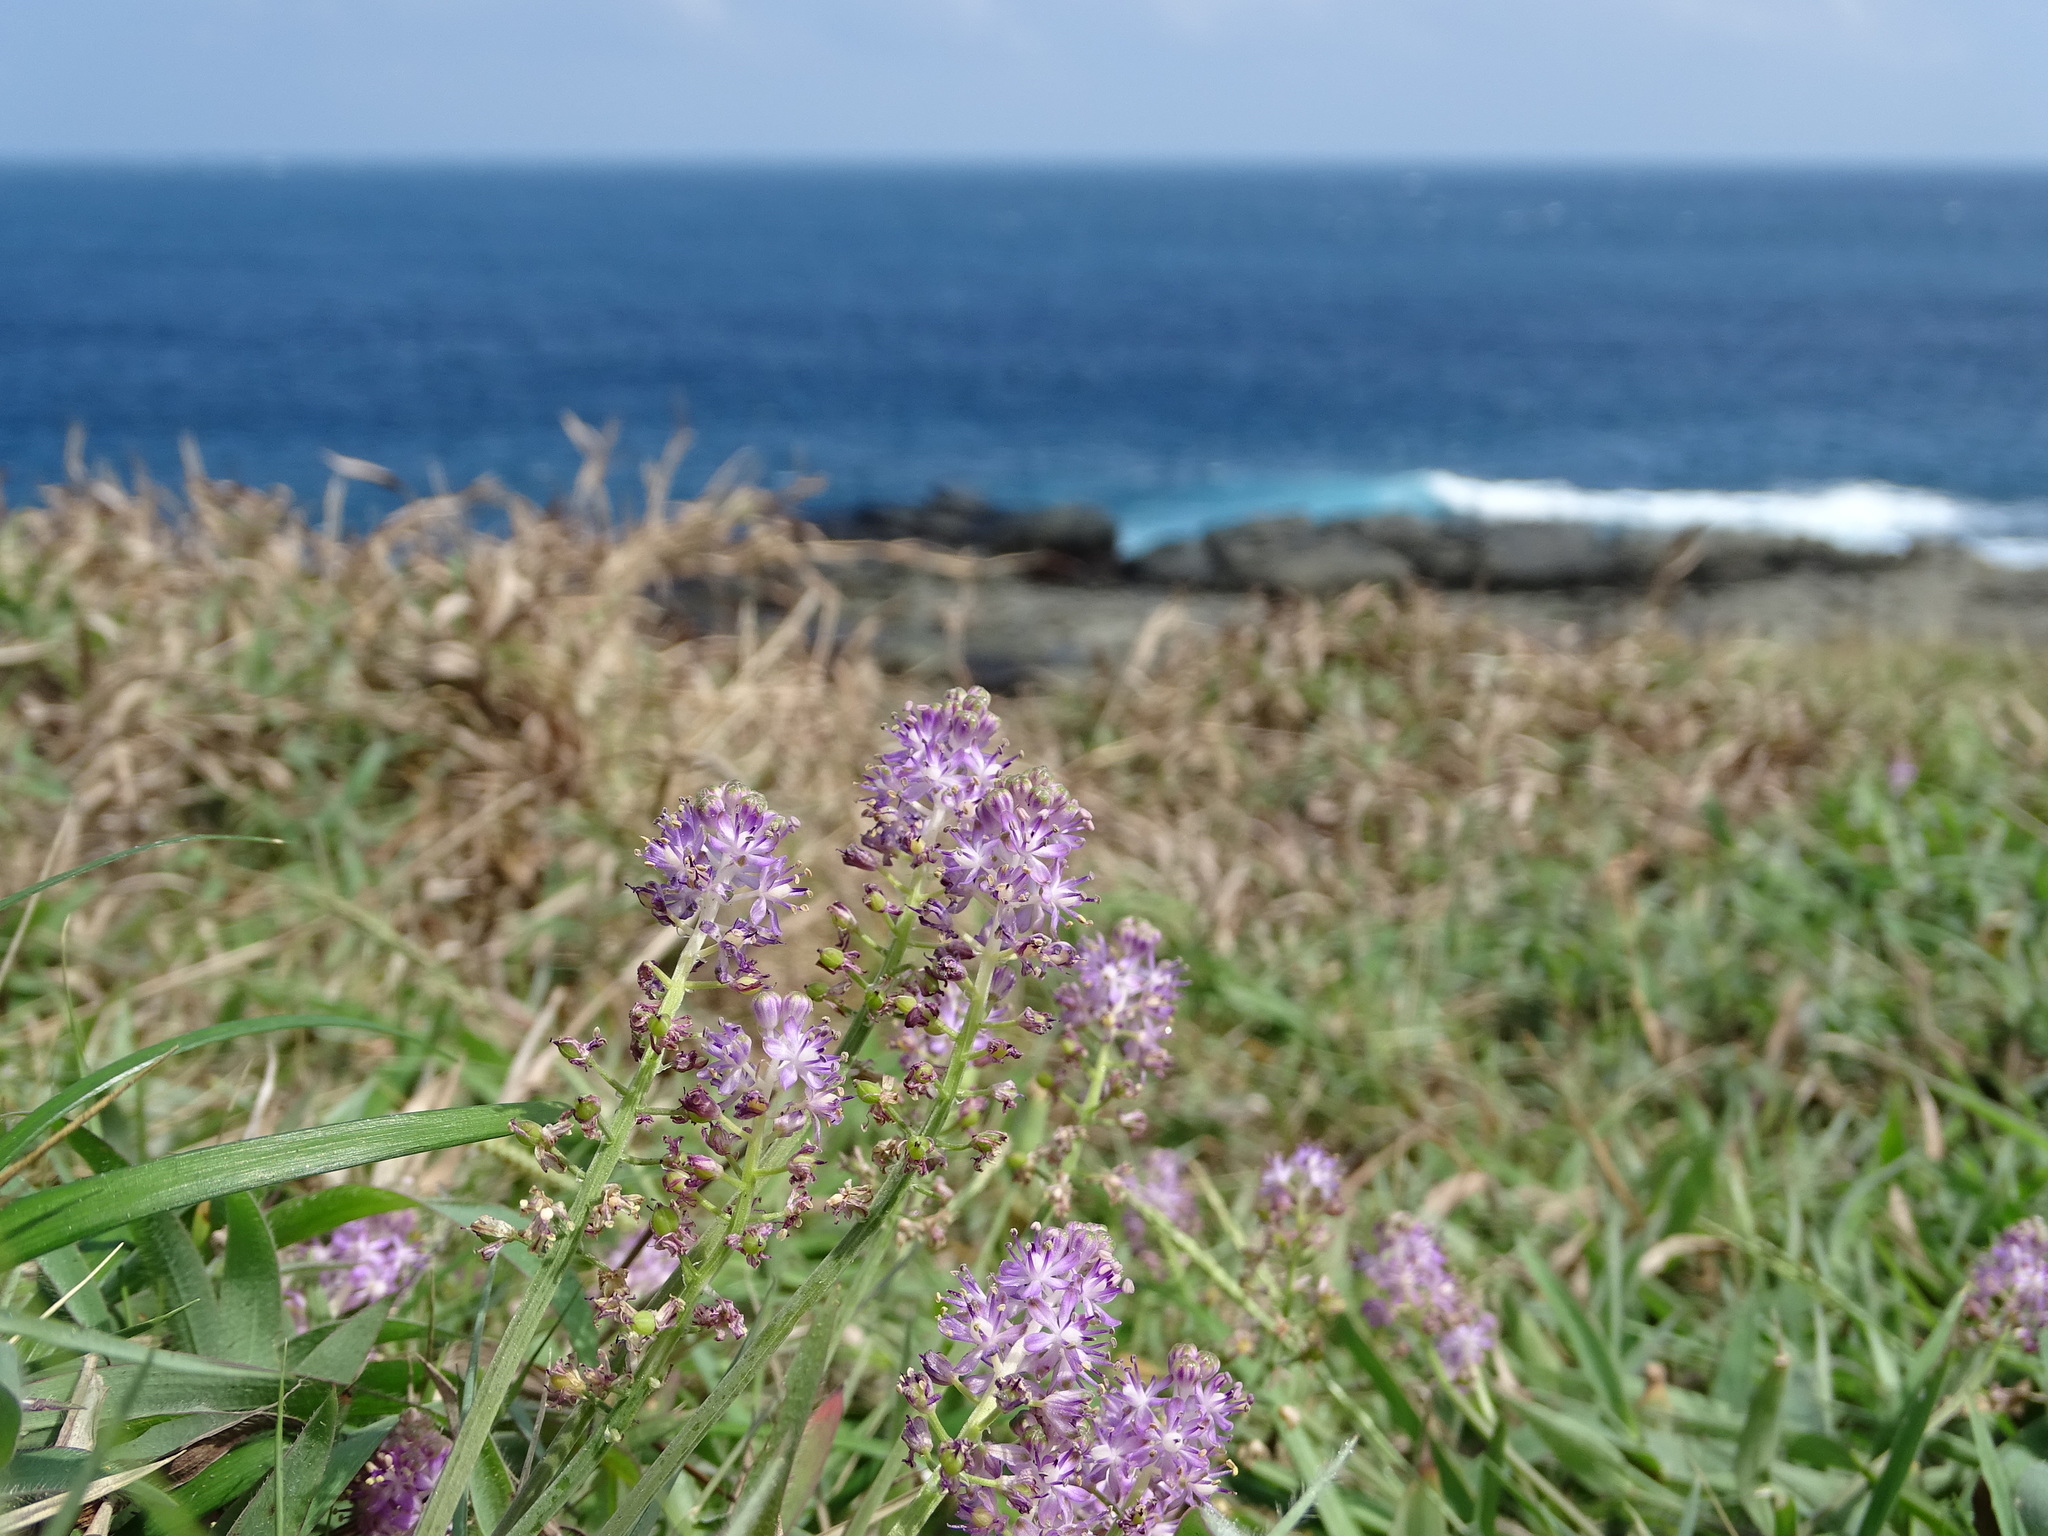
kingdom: Plantae
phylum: Tracheophyta
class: Liliopsida
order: Asparagales
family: Asparagaceae
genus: Barnardia
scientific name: Barnardia japonica
